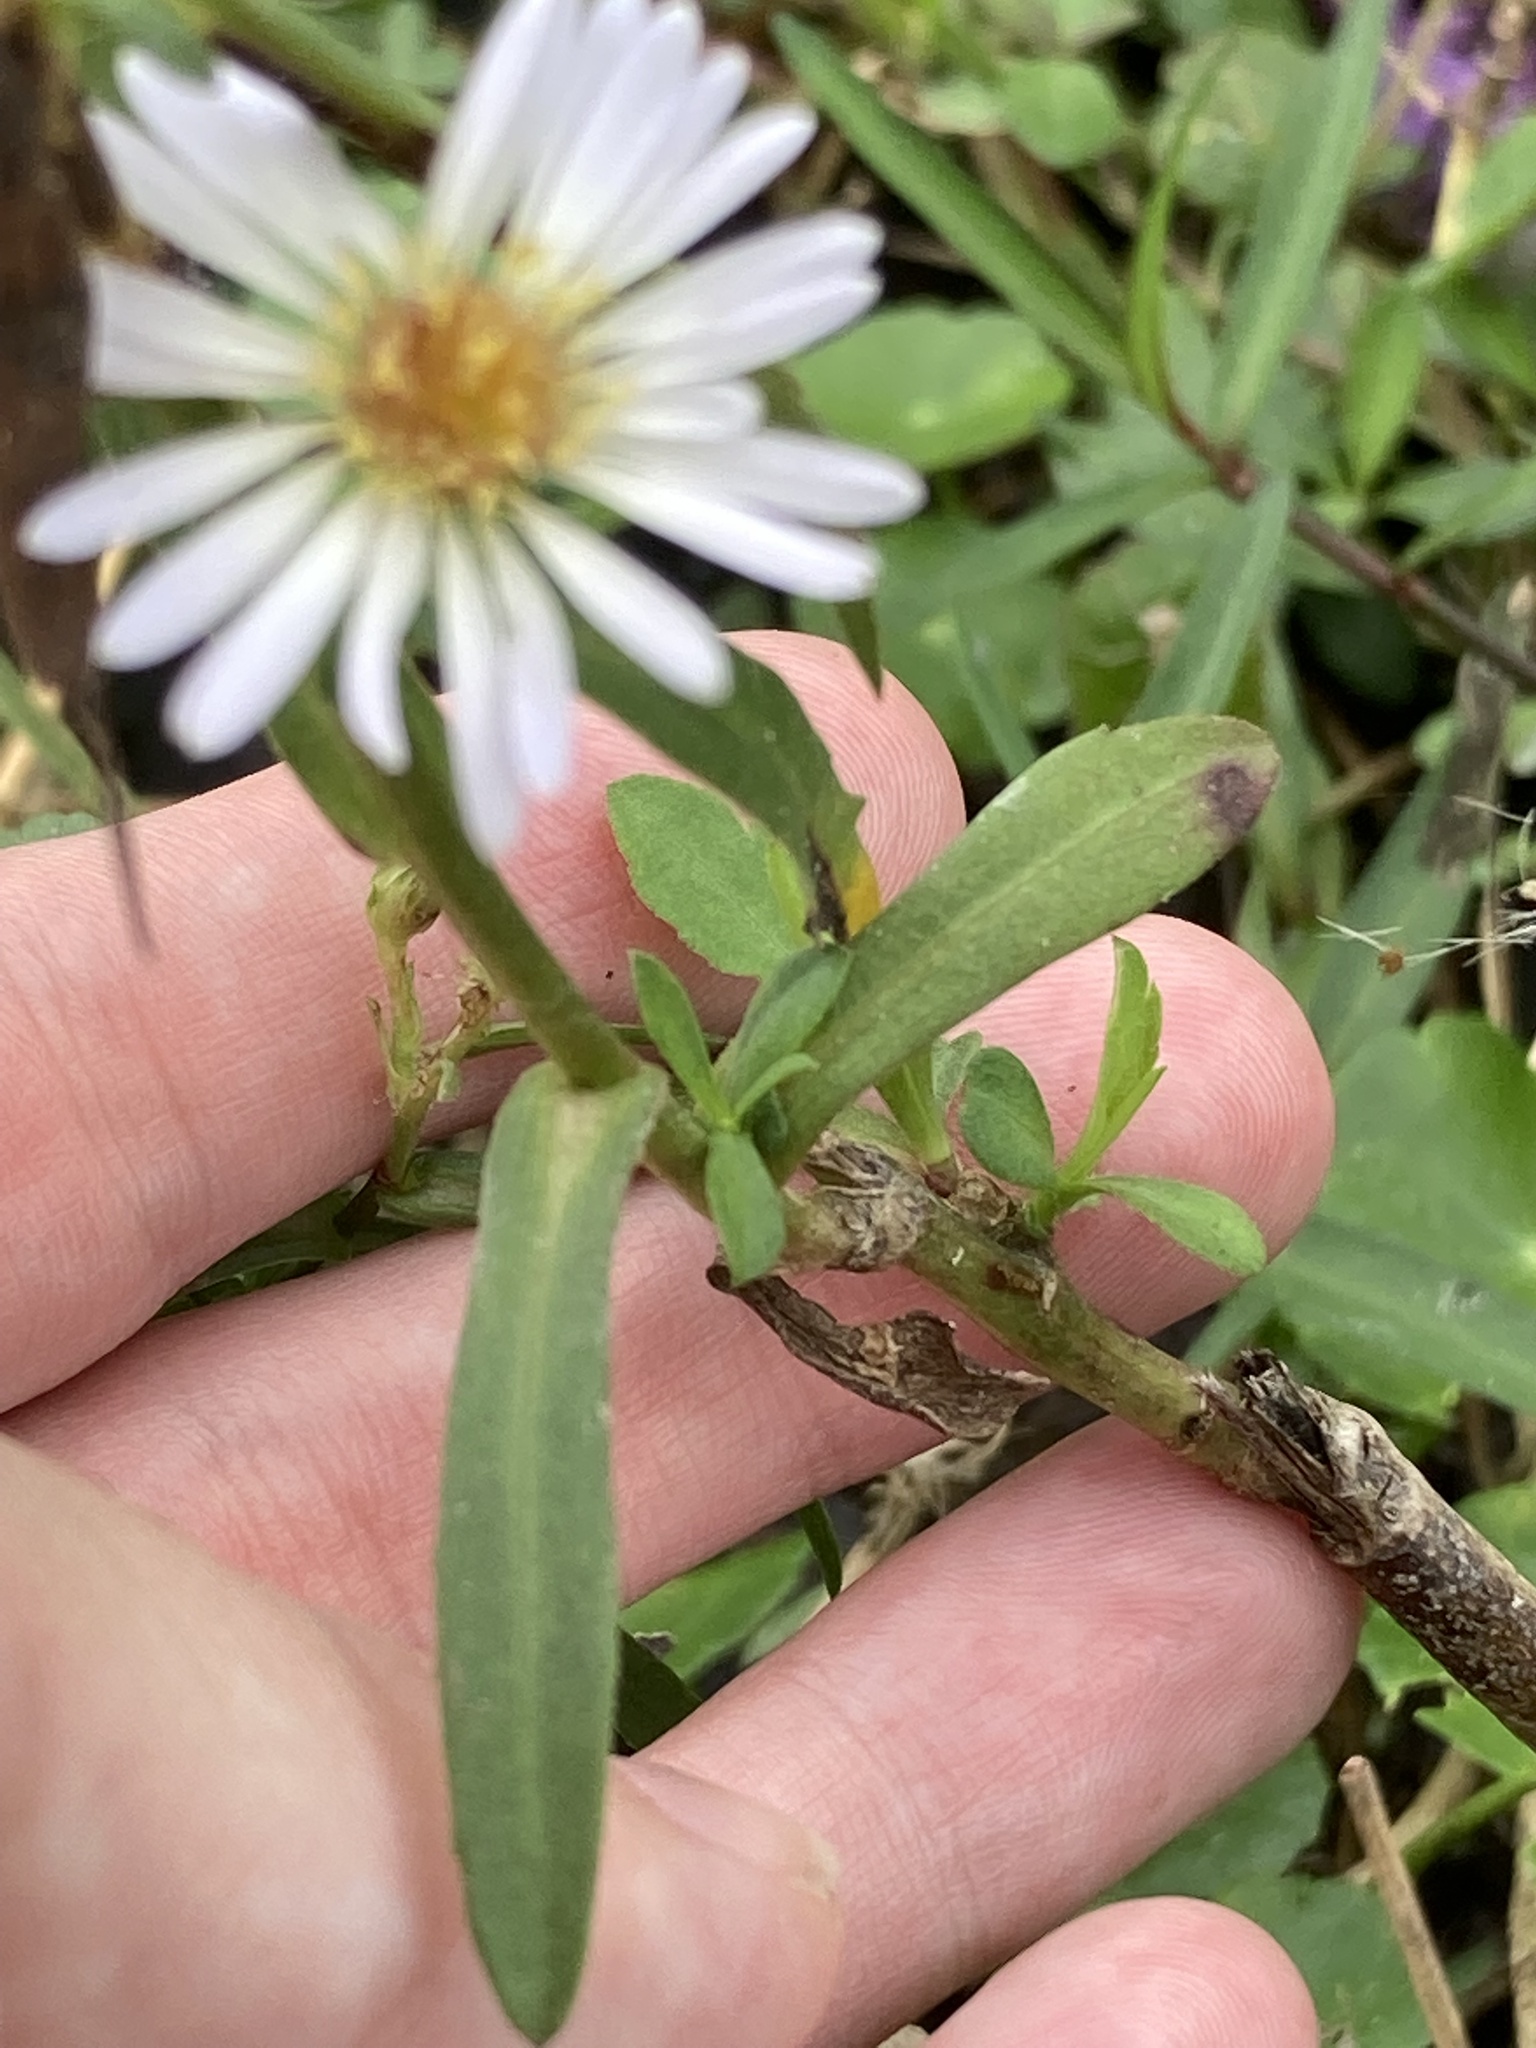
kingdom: Plantae
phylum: Tracheophyta
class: Magnoliopsida
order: Asterales
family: Asteraceae
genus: Symphyotrichum
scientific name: Symphyotrichum simmondsii
